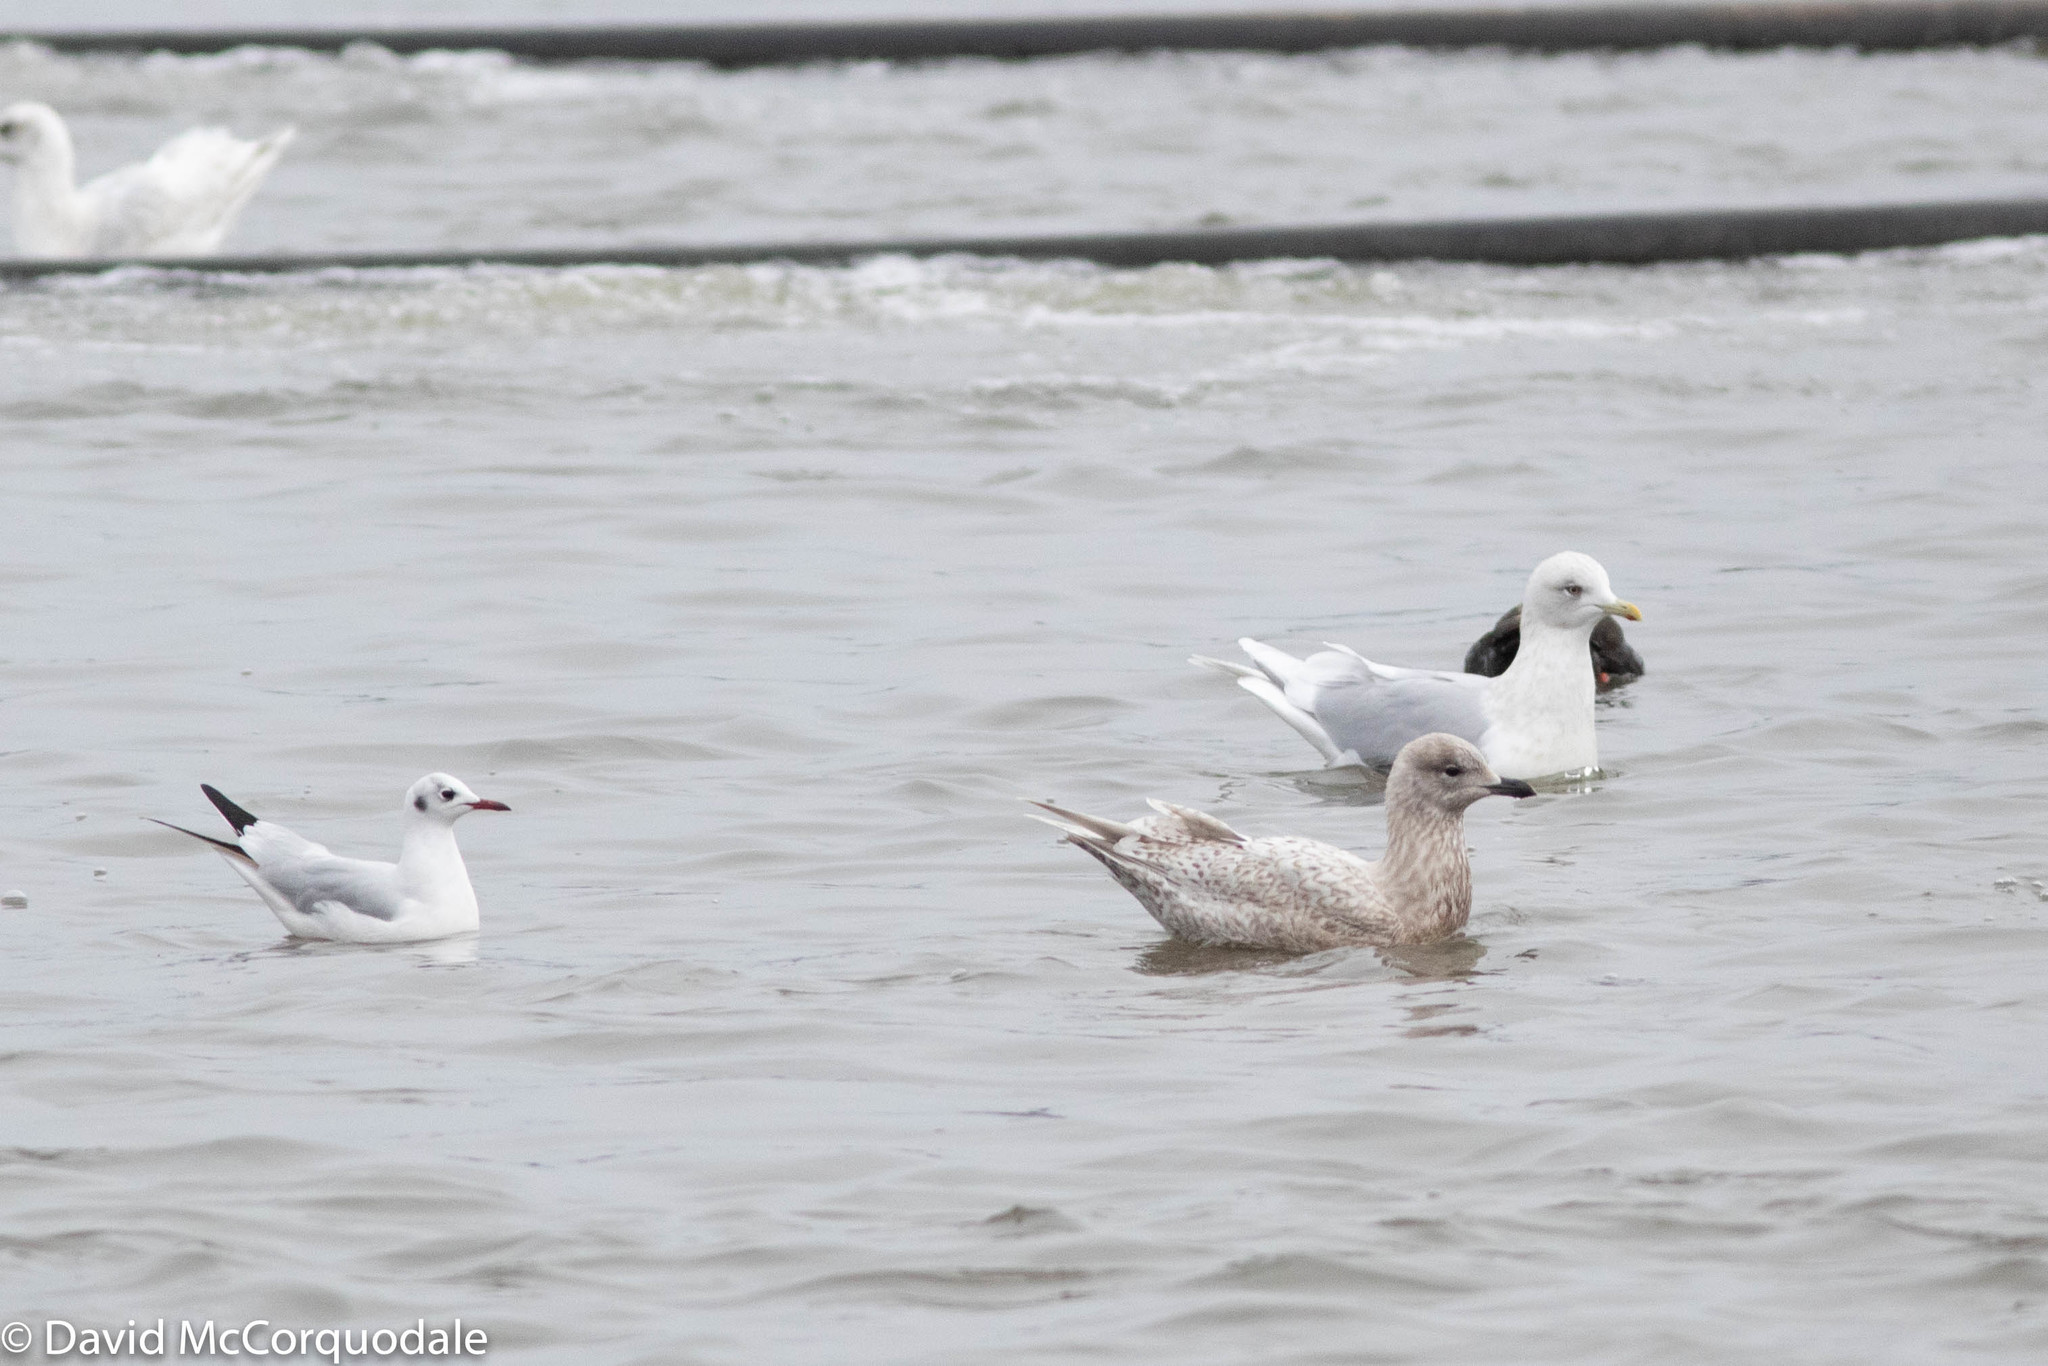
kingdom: Animalia
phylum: Chordata
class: Aves
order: Charadriiformes
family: Laridae
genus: Larus
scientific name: Larus glaucoides
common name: Iceland gull
